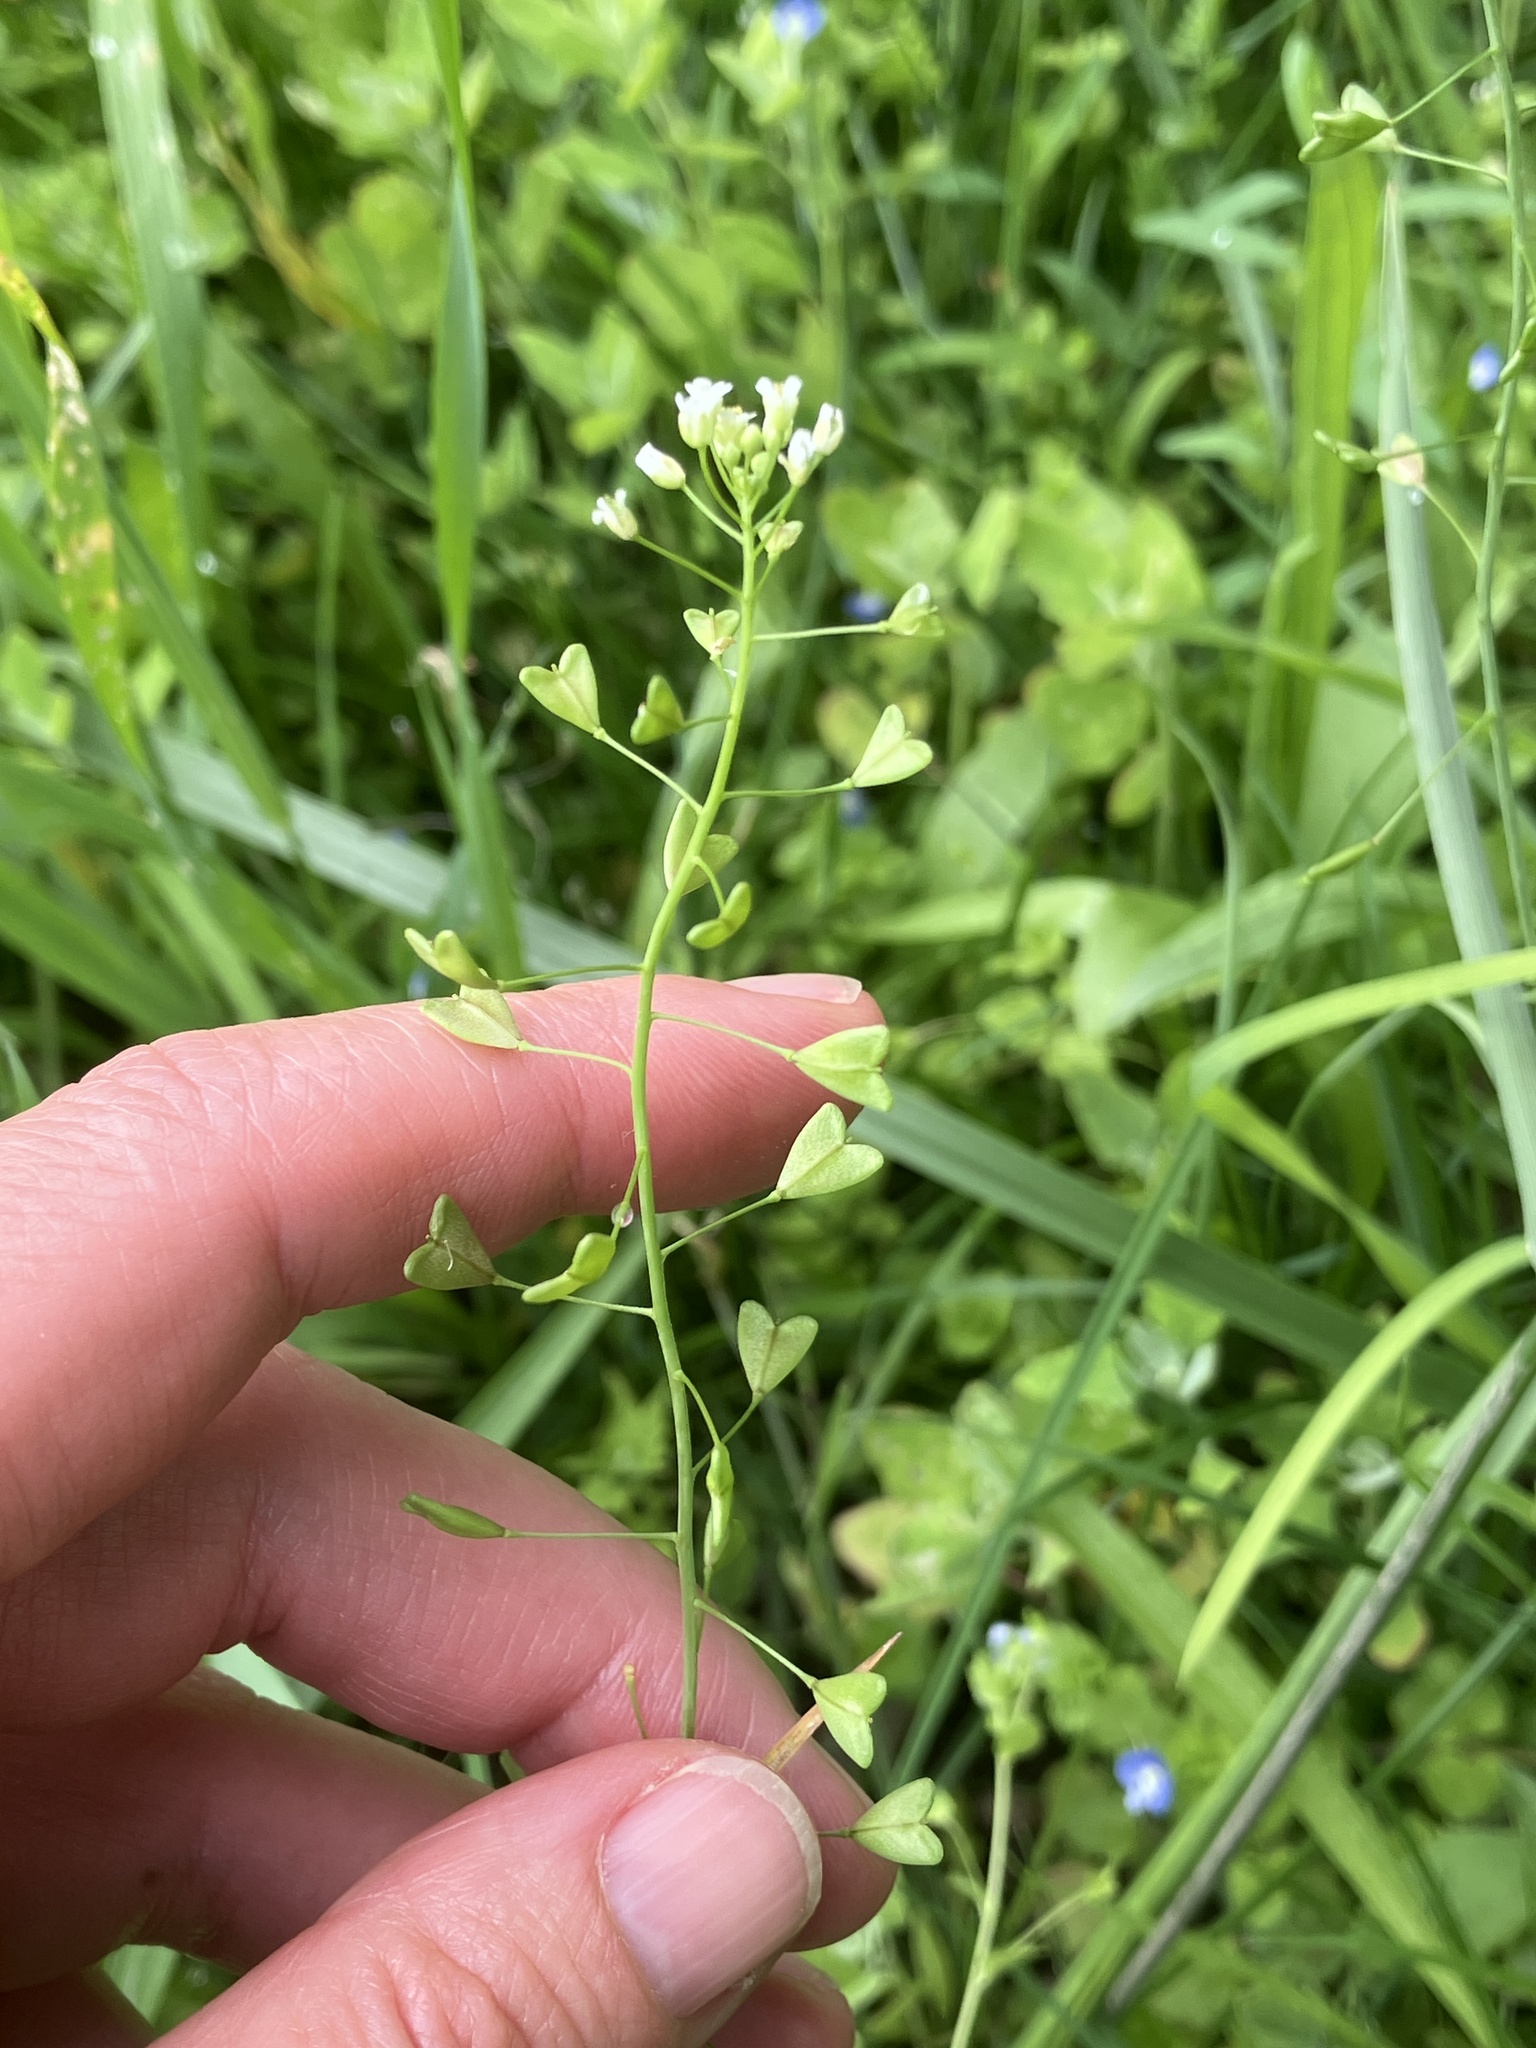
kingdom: Plantae
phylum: Tracheophyta
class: Magnoliopsida
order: Brassicales
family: Brassicaceae
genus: Capsella
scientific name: Capsella bursa-pastoris
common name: Shepherd's purse
